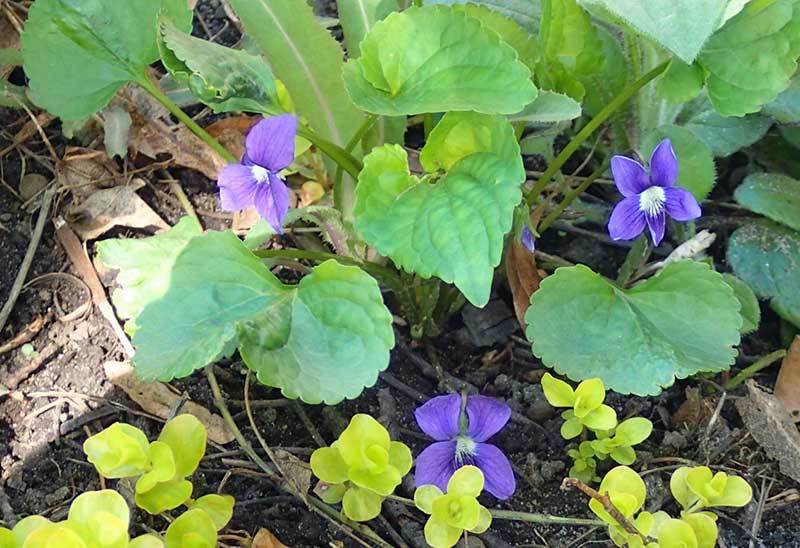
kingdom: Plantae
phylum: Tracheophyta
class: Magnoliopsida
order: Malpighiales
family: Violaceae
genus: Viola
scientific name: Viola sororia
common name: Dooryard violet
